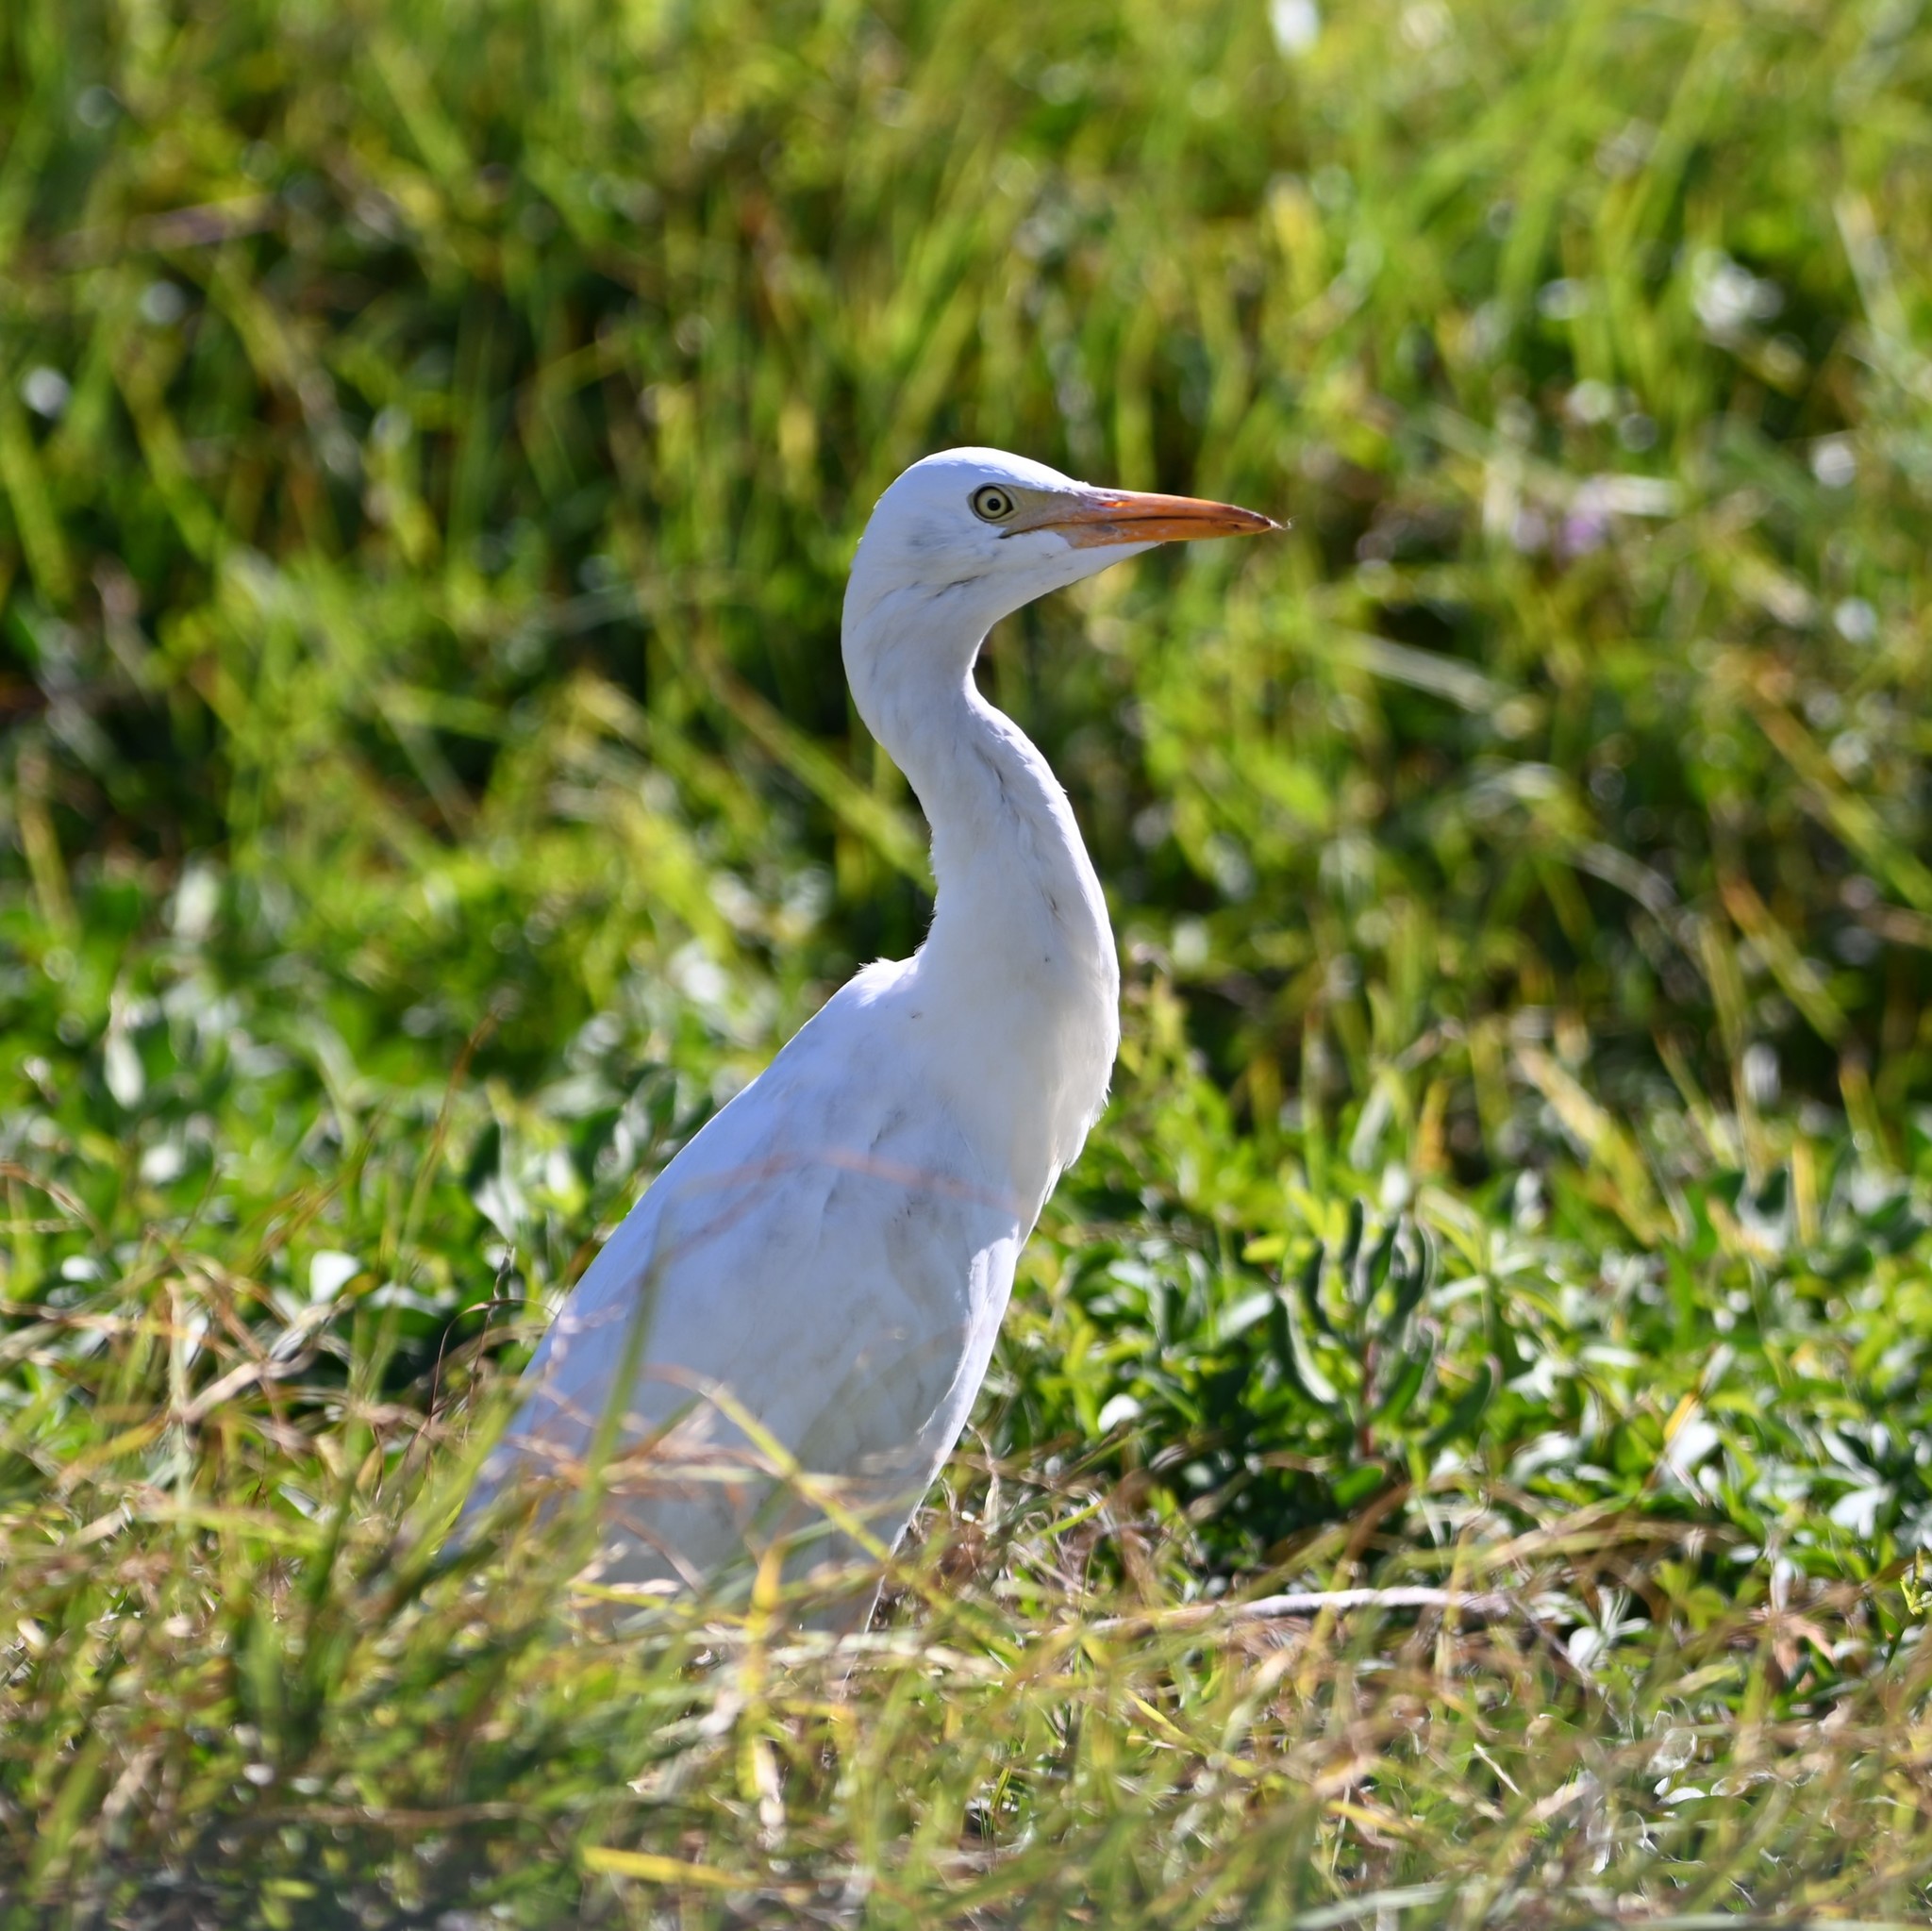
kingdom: Animalia
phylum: Chordata
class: Aves
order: Pelecaniformes
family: Ardeidae
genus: Bubulcus
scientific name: Bubulcus ibis
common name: Cattle egret
